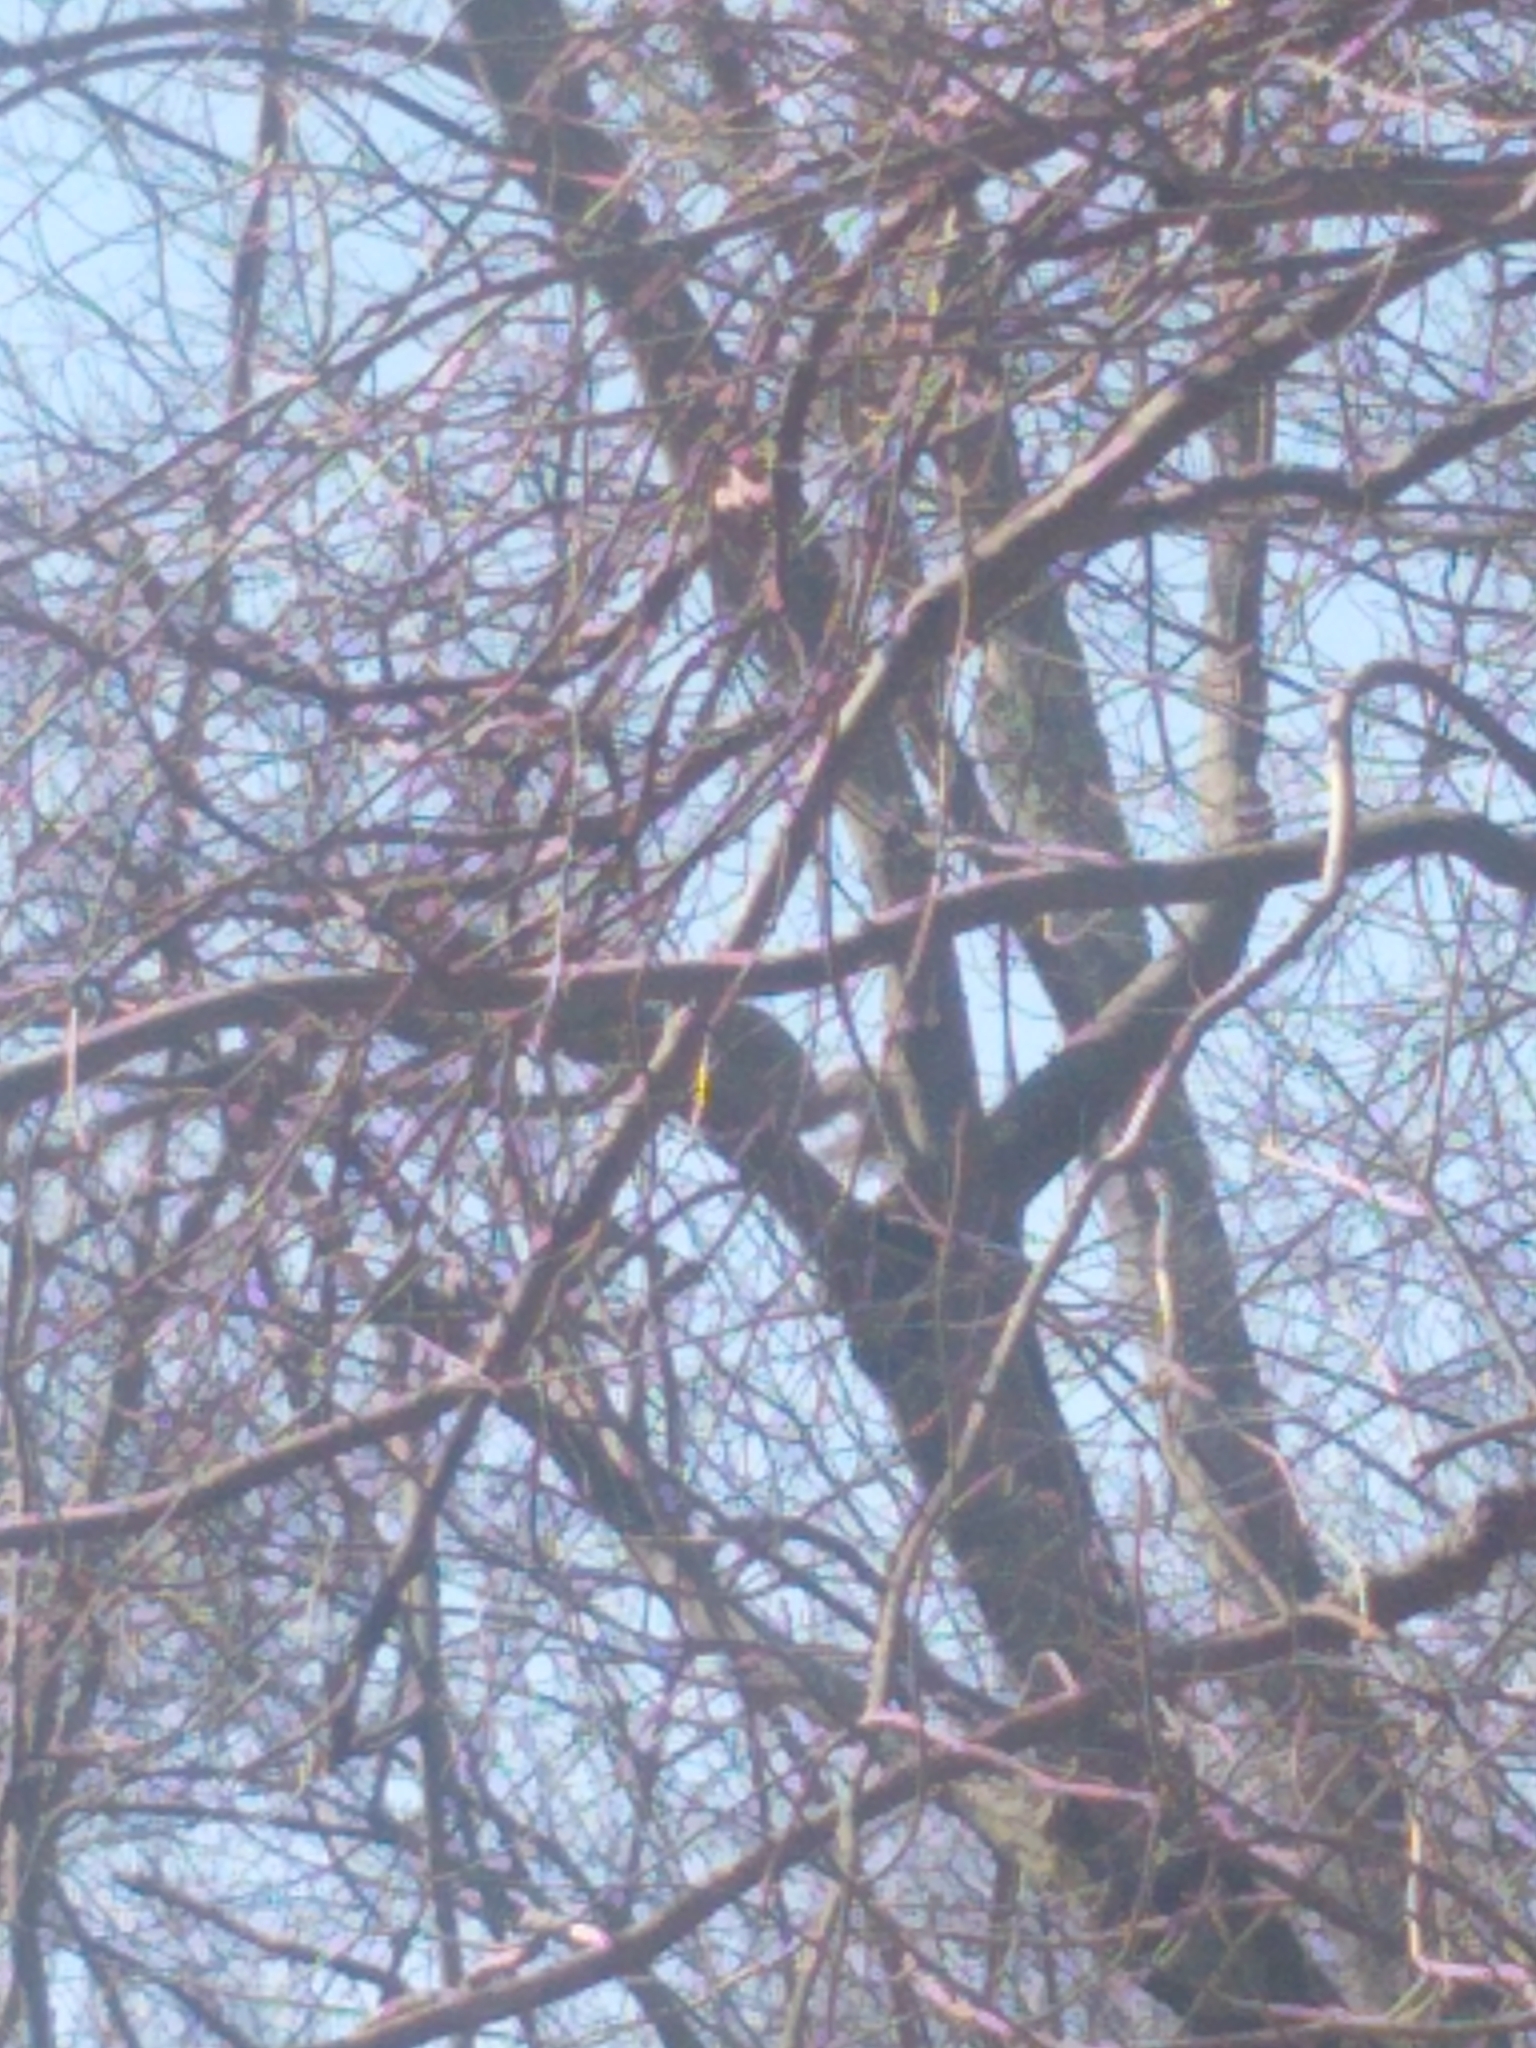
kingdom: Animalia
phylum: Chordata
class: Mammalia
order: Rodentia
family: Sciuridae
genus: Sciurus
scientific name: Sciurus carolinensis
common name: Eastern gray squirrel
